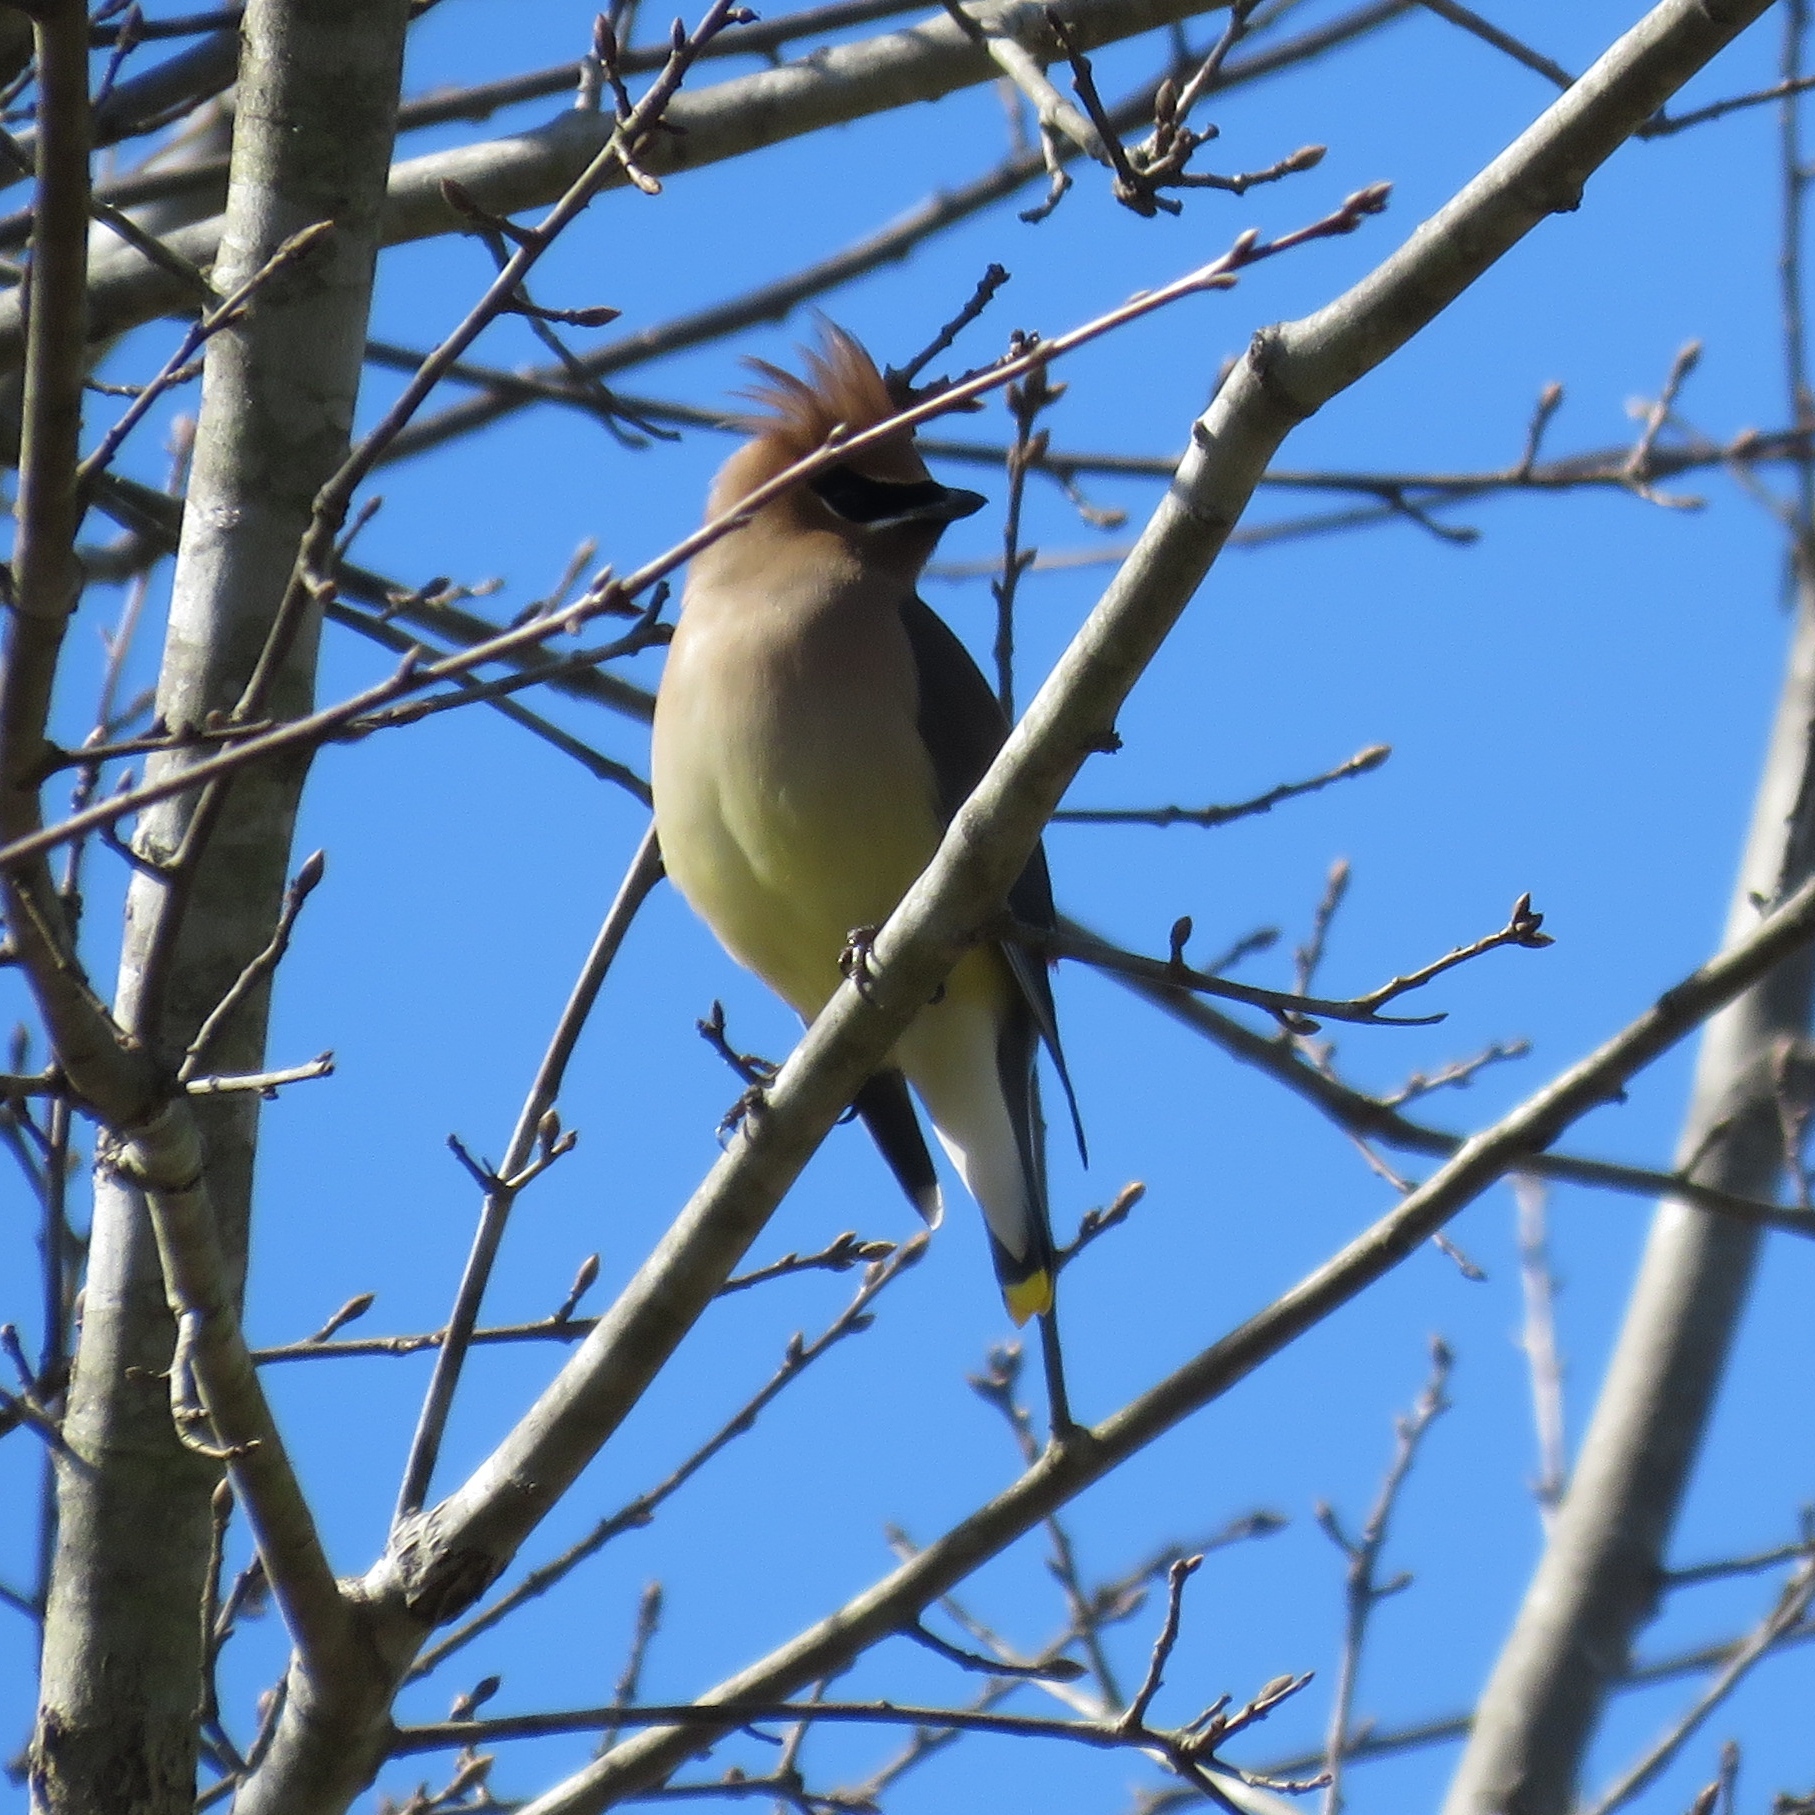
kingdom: Animalia
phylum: Chordata
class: Aves
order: Passeriformes
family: Bombycillidae
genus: Bombycilla
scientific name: Bombycilla cedrorum
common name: Cedar waxwing
